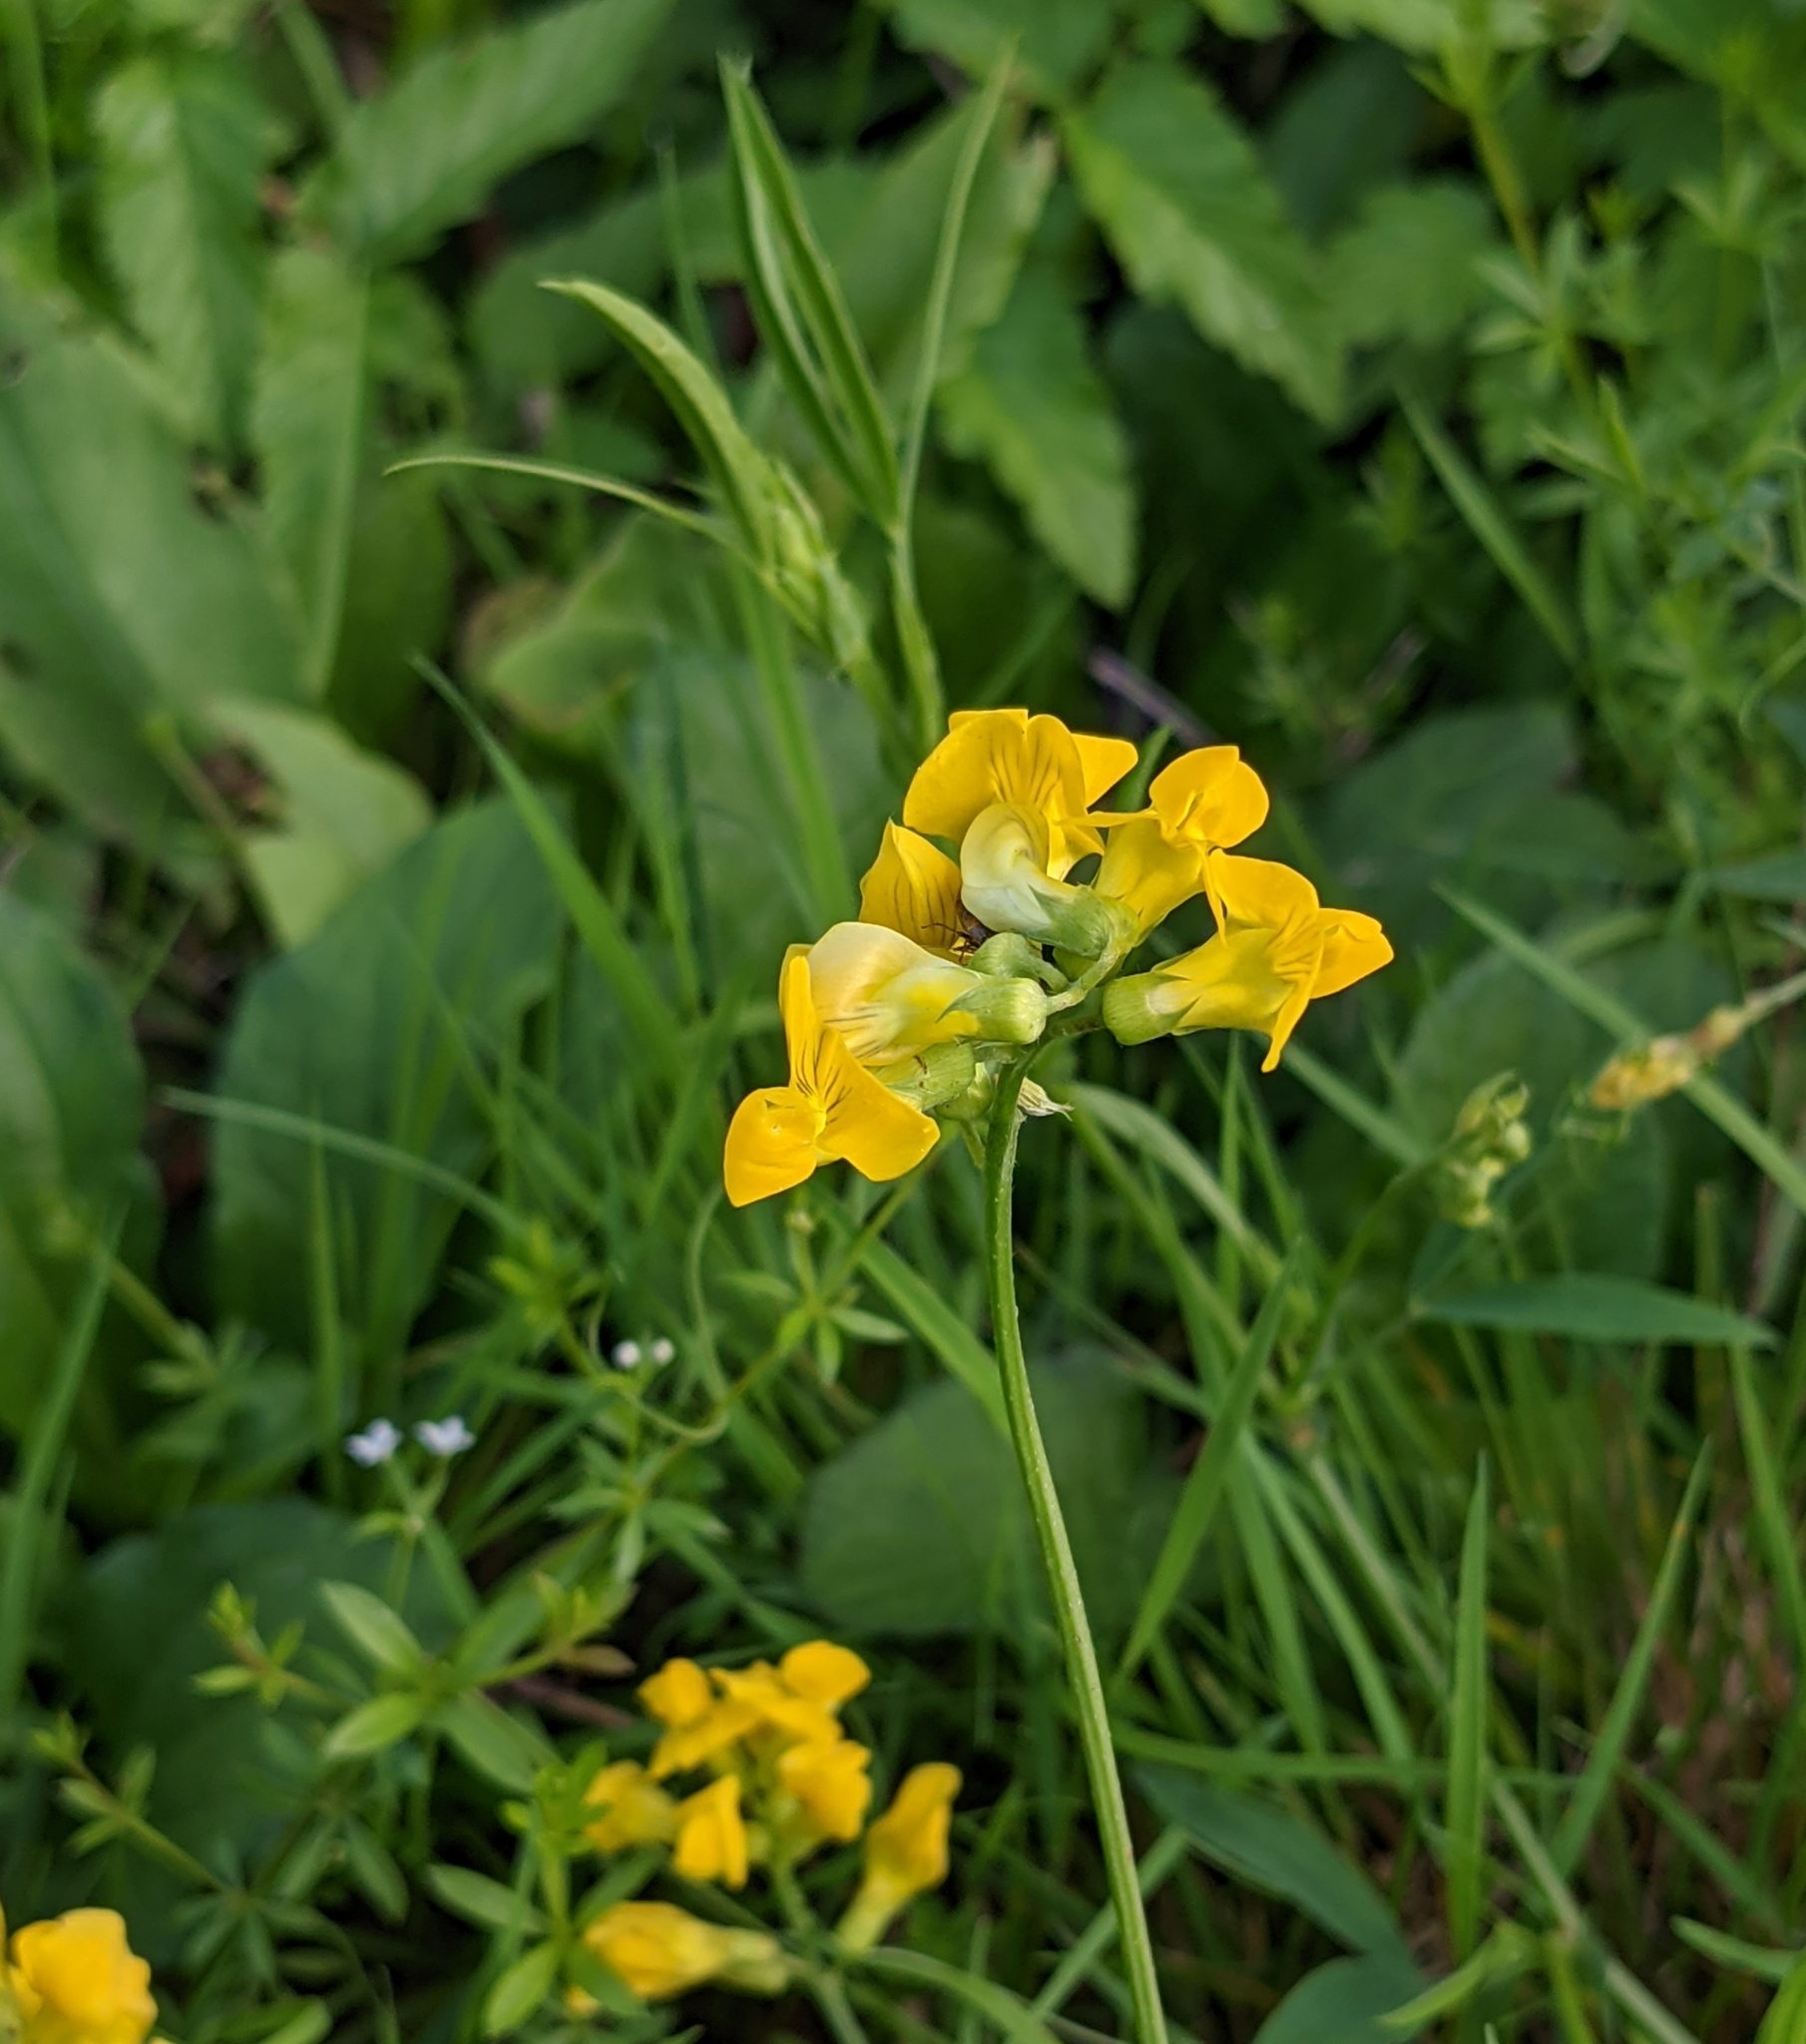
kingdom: Plantae
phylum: Tracheophyta
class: Magnoliopsida
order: Fabales
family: Fabaceae
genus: Lathyrus
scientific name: Lathyrus pratensis
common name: Meadow vetchling
